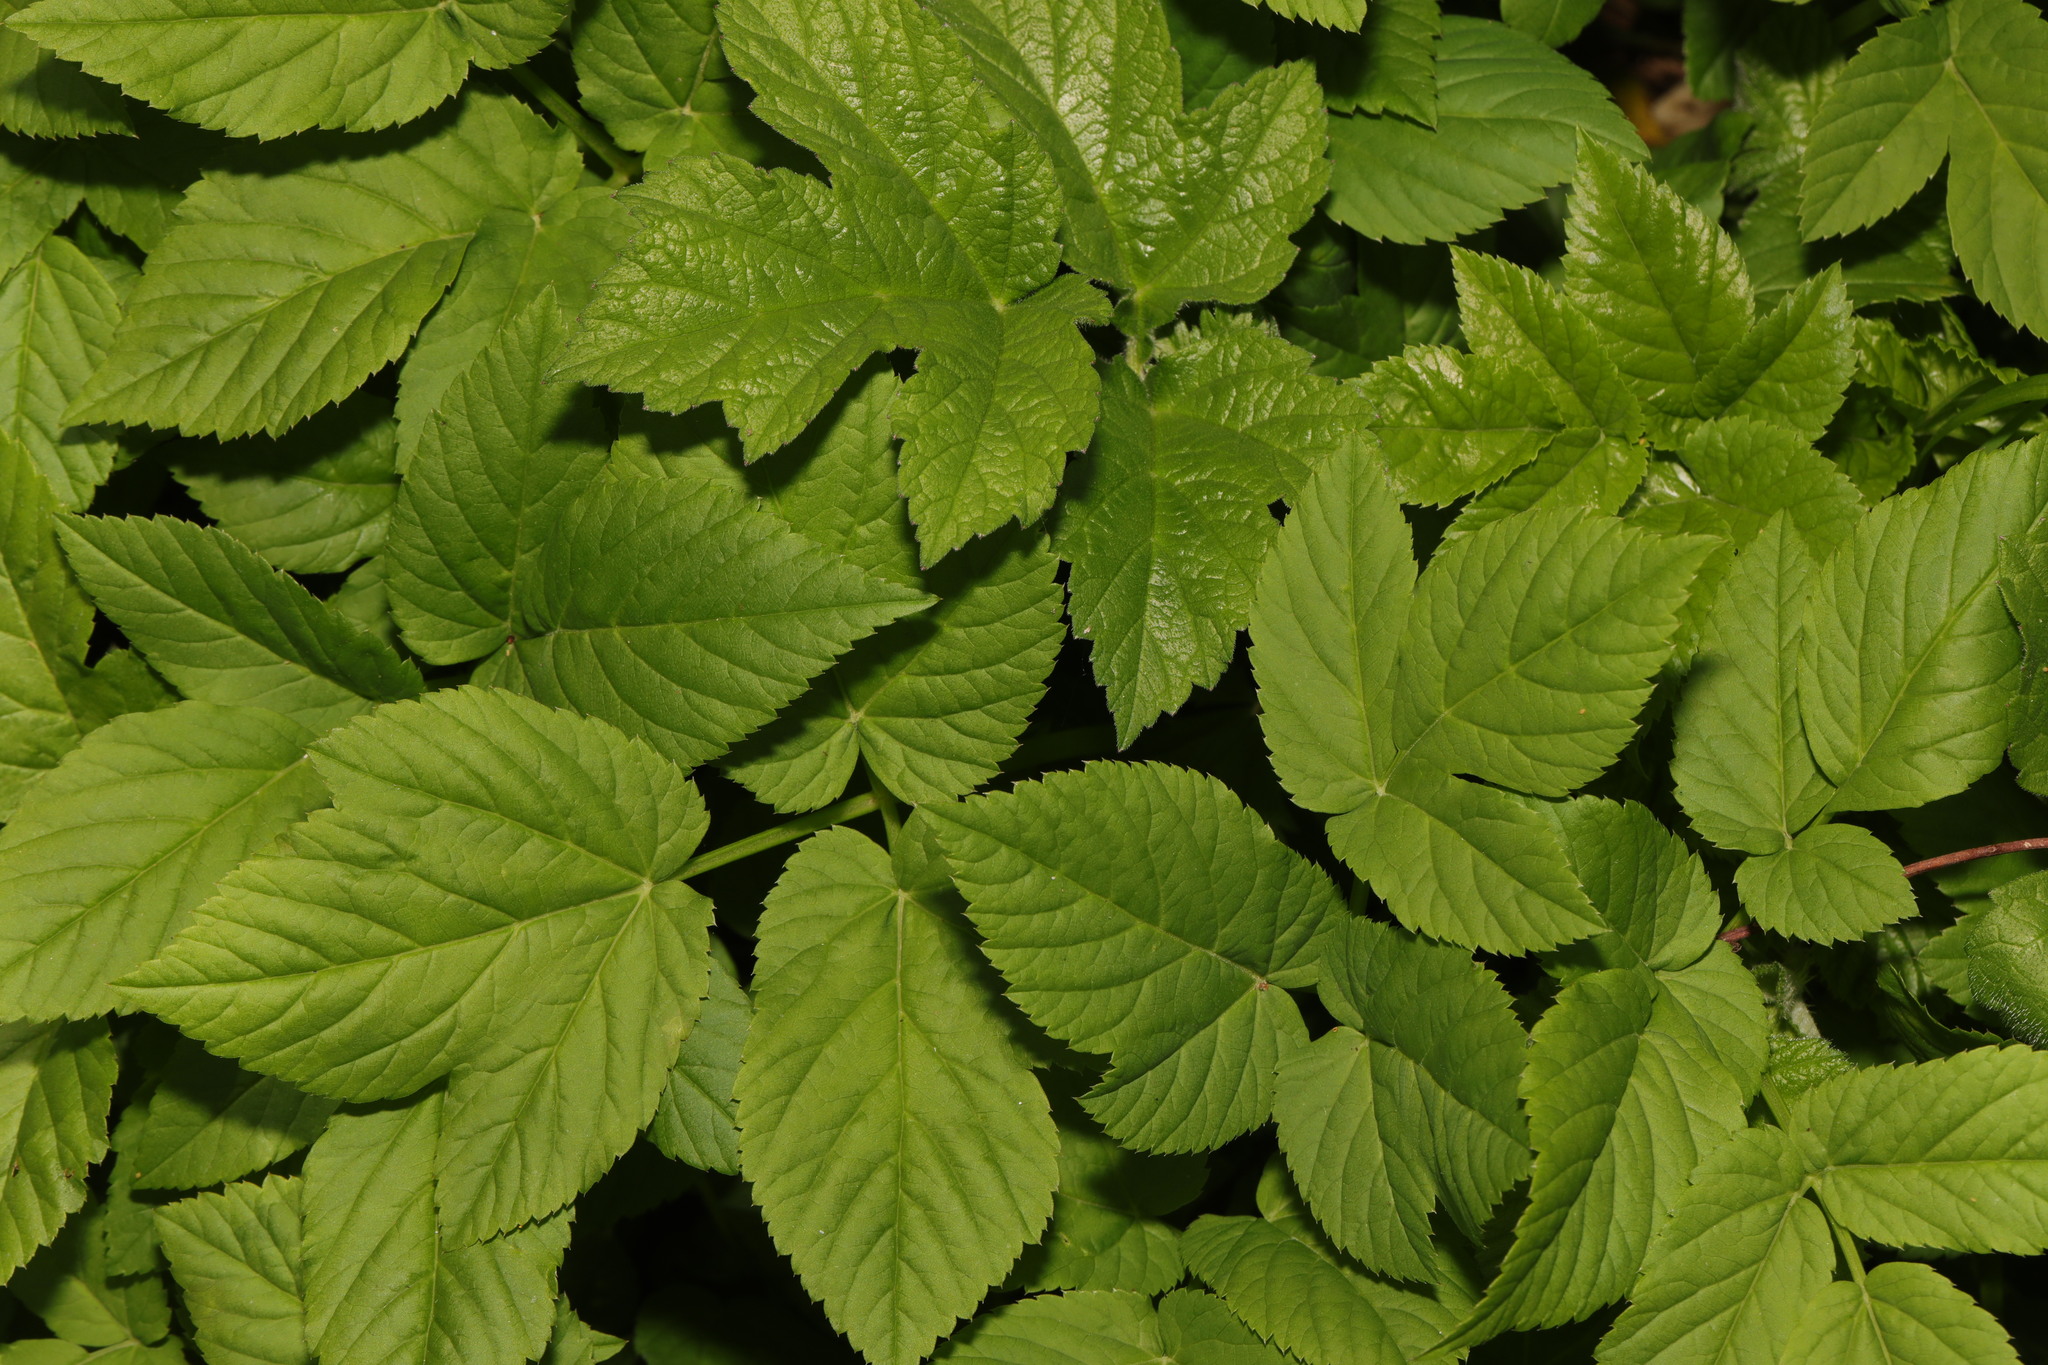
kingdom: Plantae
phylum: Tracheophyta
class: Magnoliopsida
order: Apiales
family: Apiaceae
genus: Aegopodium
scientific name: Aegopodium podagraria
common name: Ground-elder
